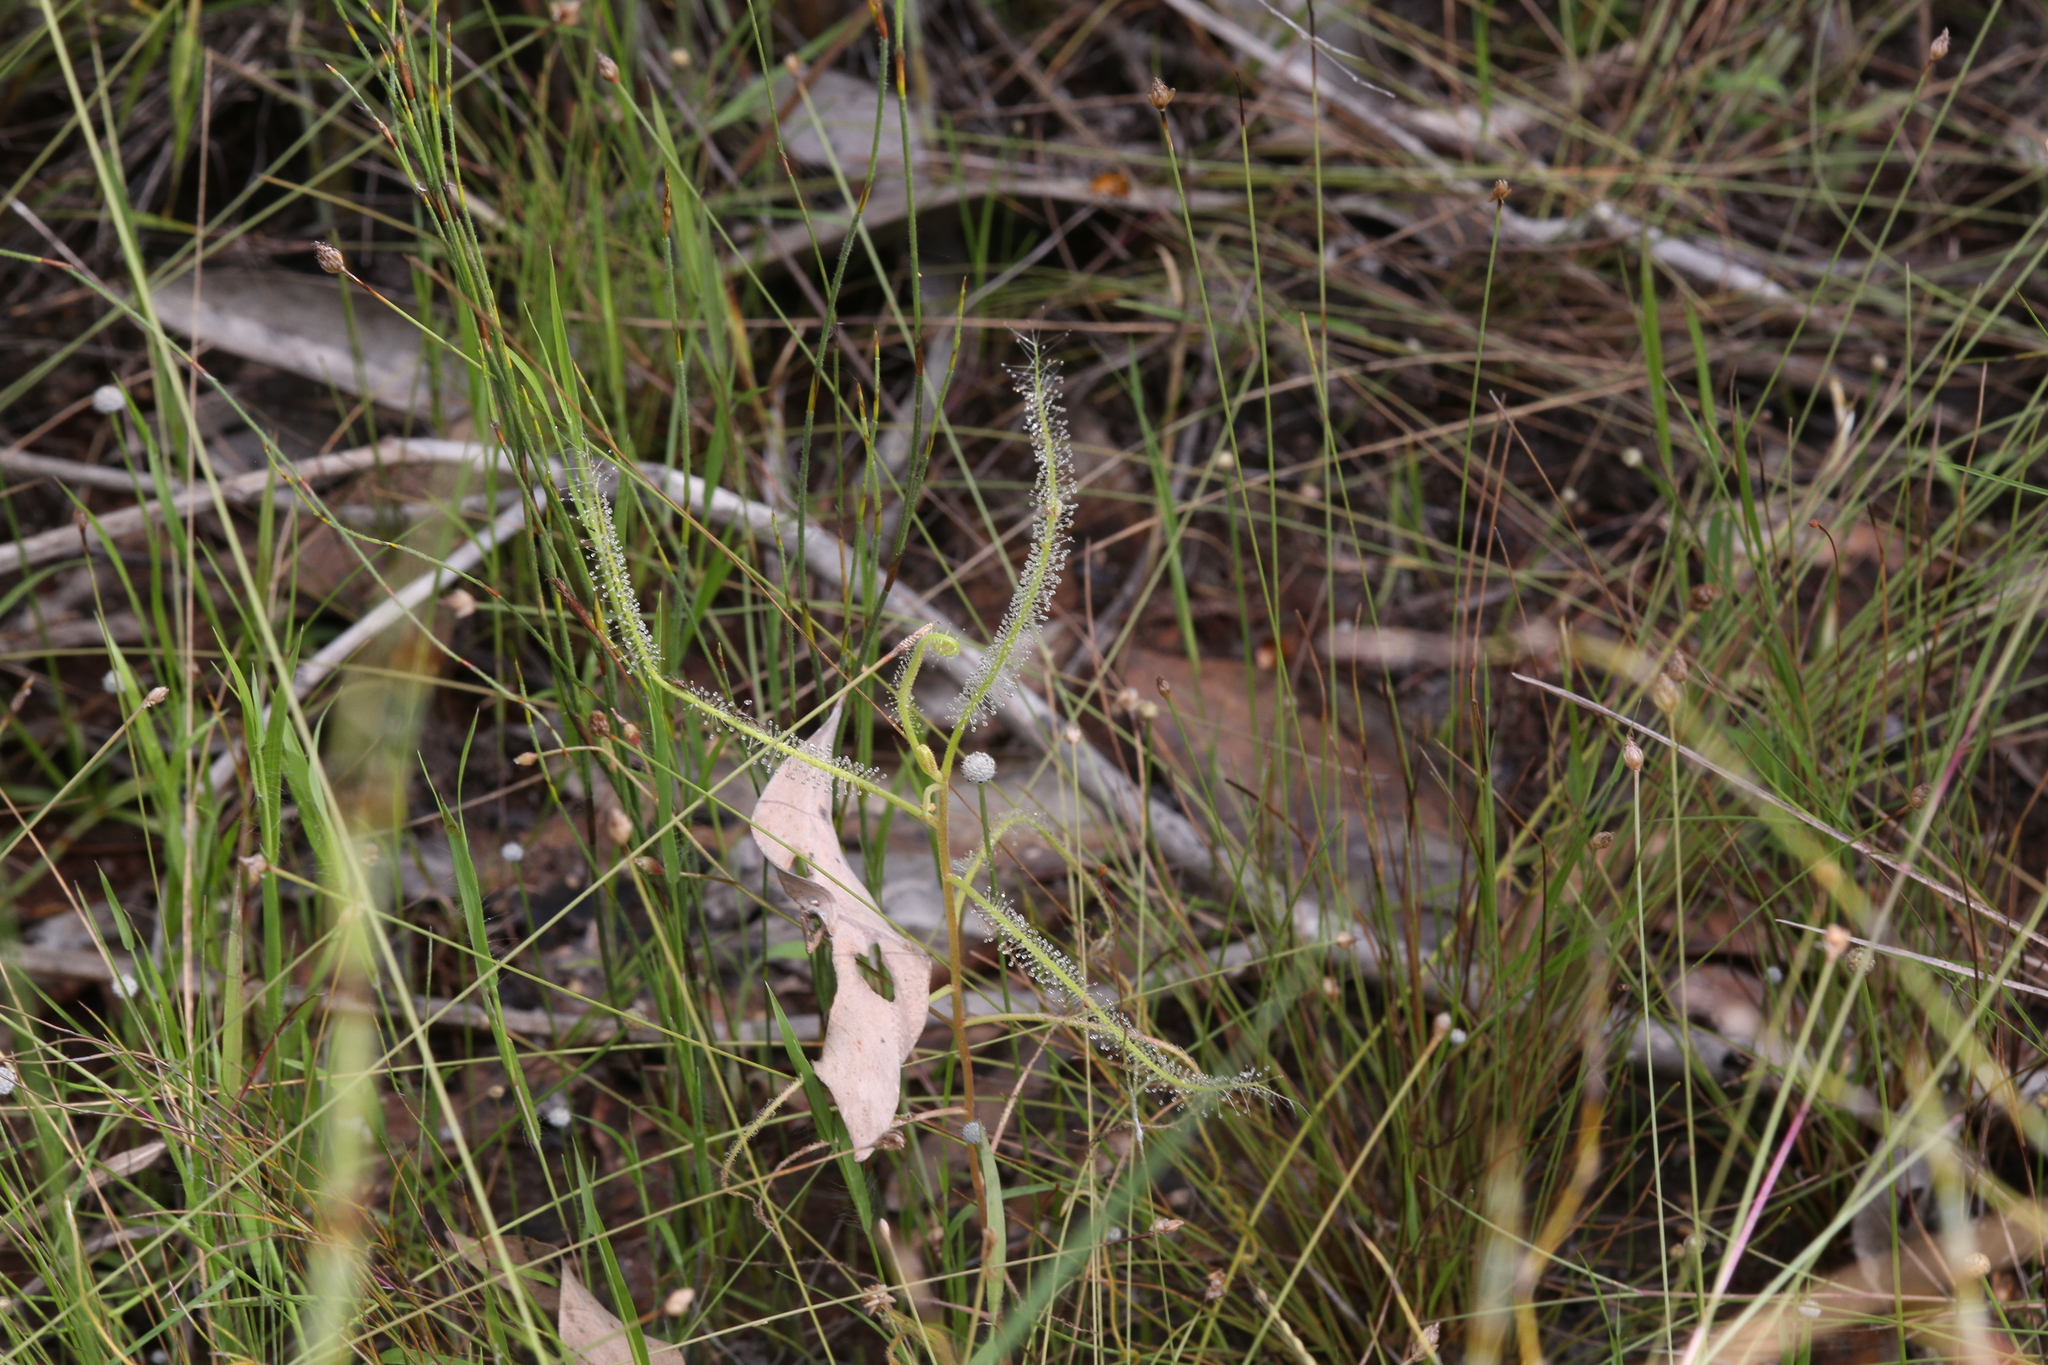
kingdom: Plantae
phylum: Tracheophyta
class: Magnoliopsida
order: Caryophyllales
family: Droseraceae
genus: Drosera
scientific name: Drosera indica
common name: Indian sundew
